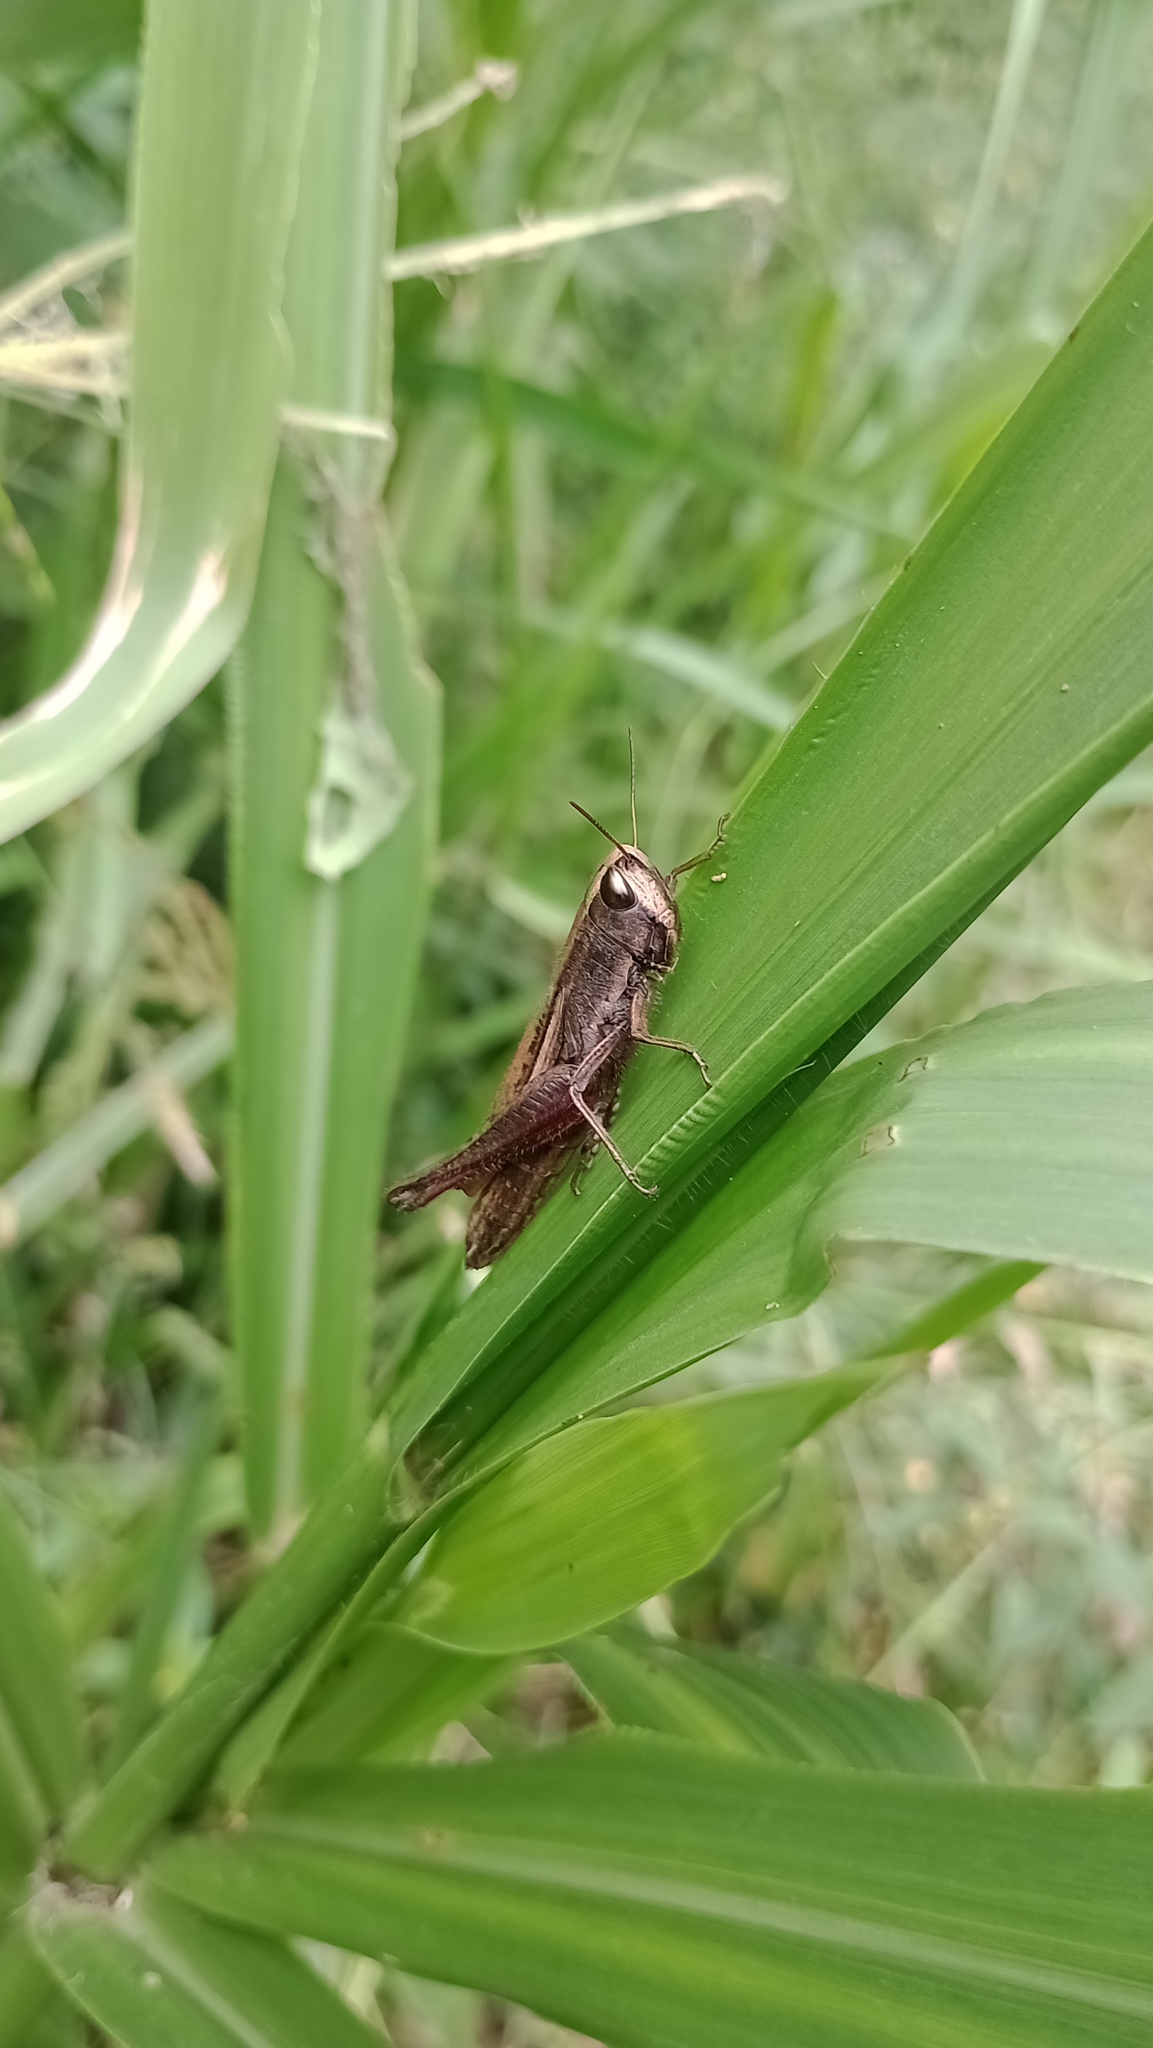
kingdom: Animalia
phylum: Arthropoda
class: Insecta
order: Orthoptera
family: Acrididae
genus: Amblytropidia
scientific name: Amblytropidia australis
